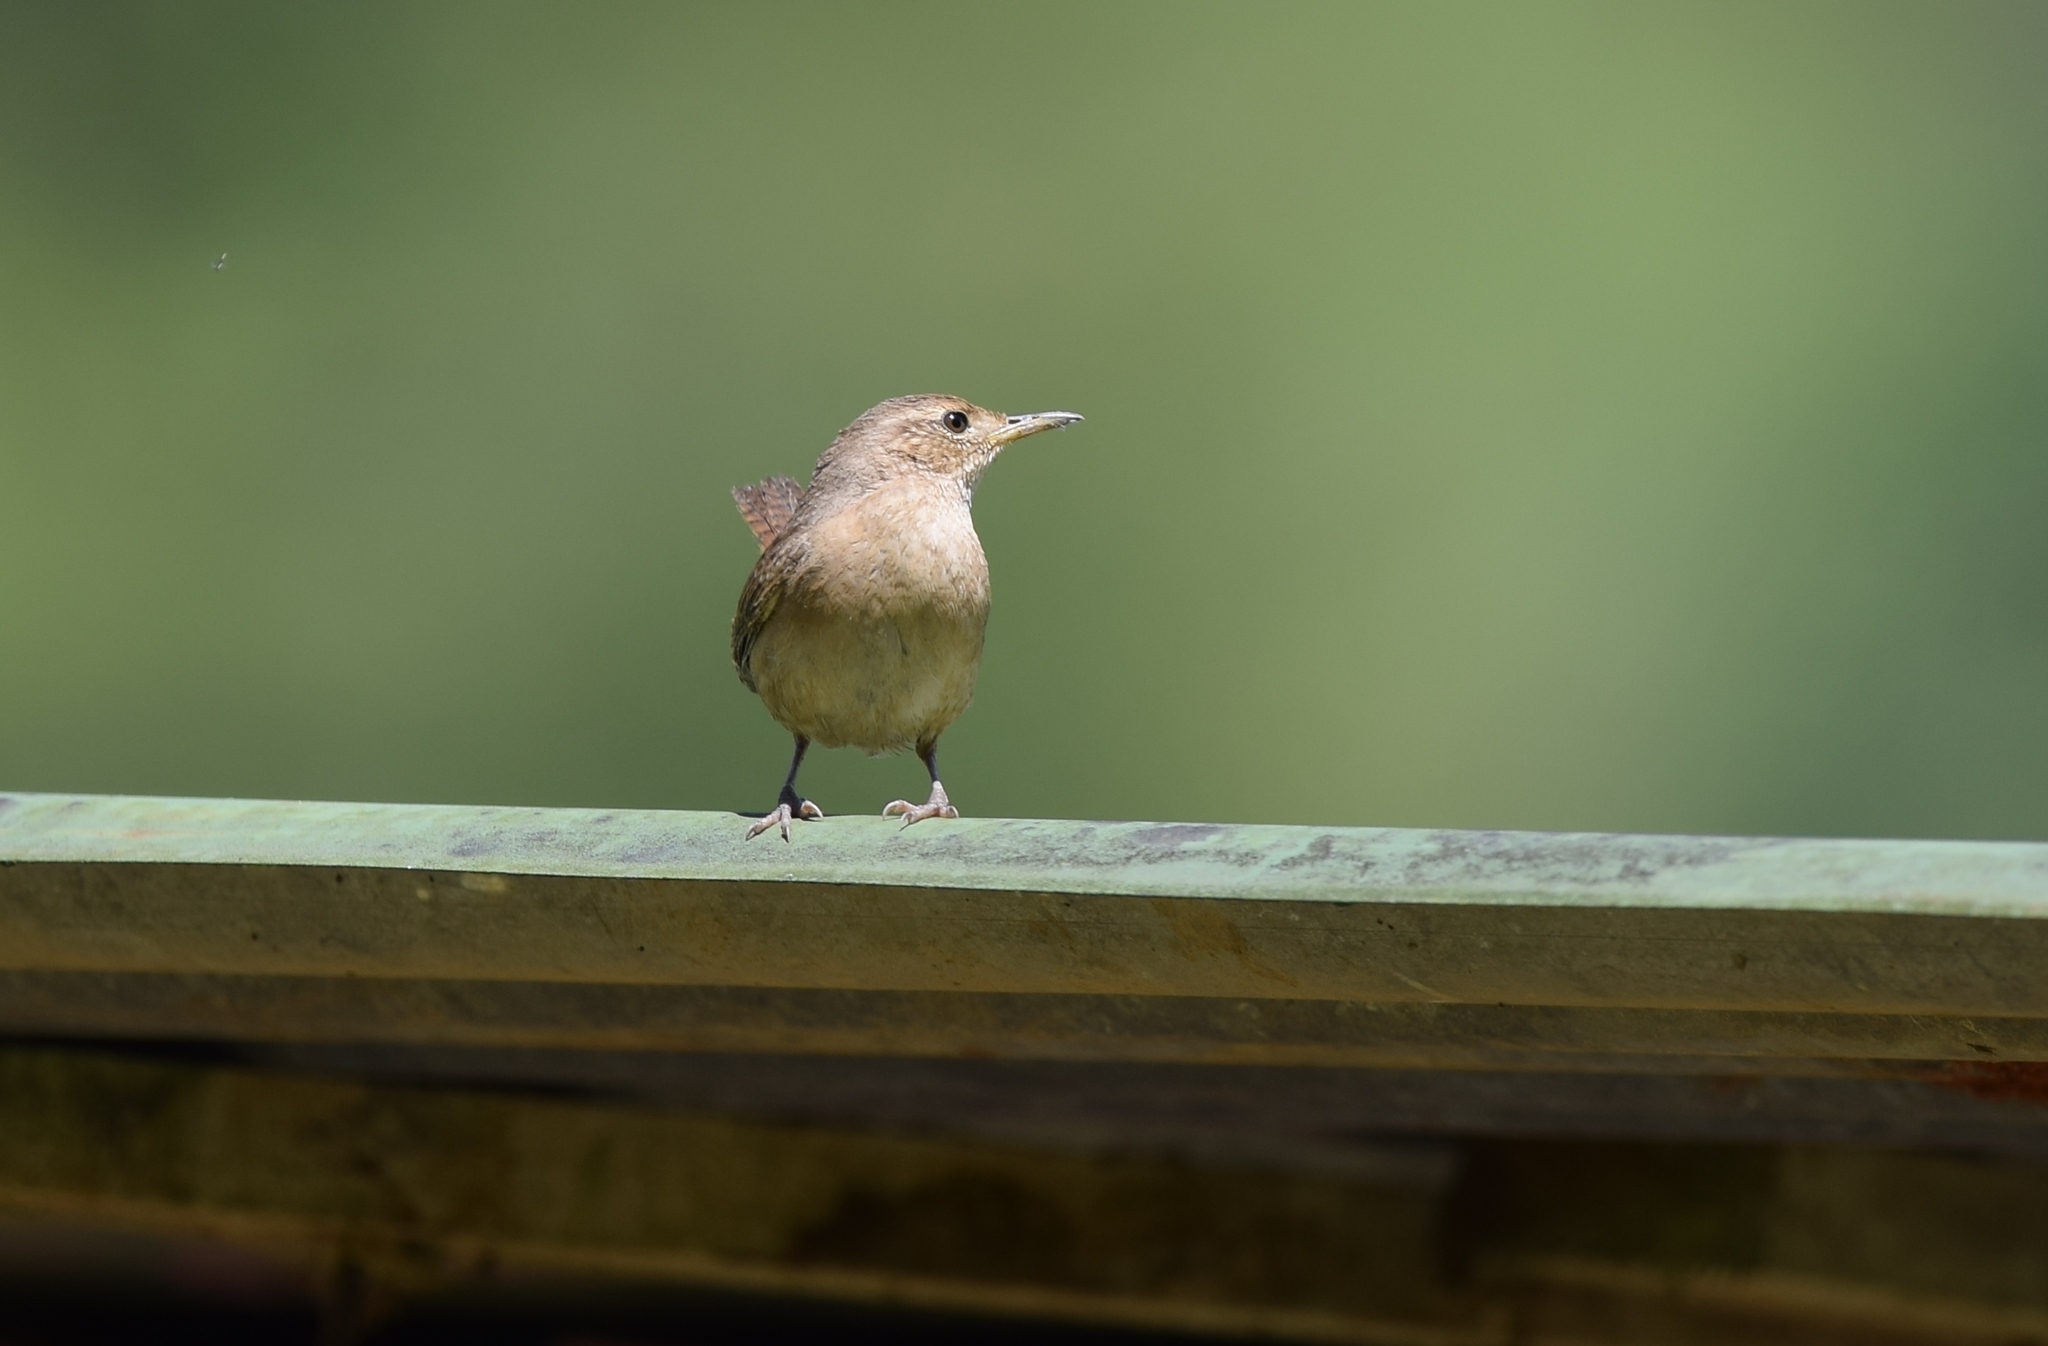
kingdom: Animalia
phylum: Chordata
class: Aves
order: Passeriformes
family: Troglodytidae
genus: Troglodytes
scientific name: Troglodytes aedon
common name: House wren
